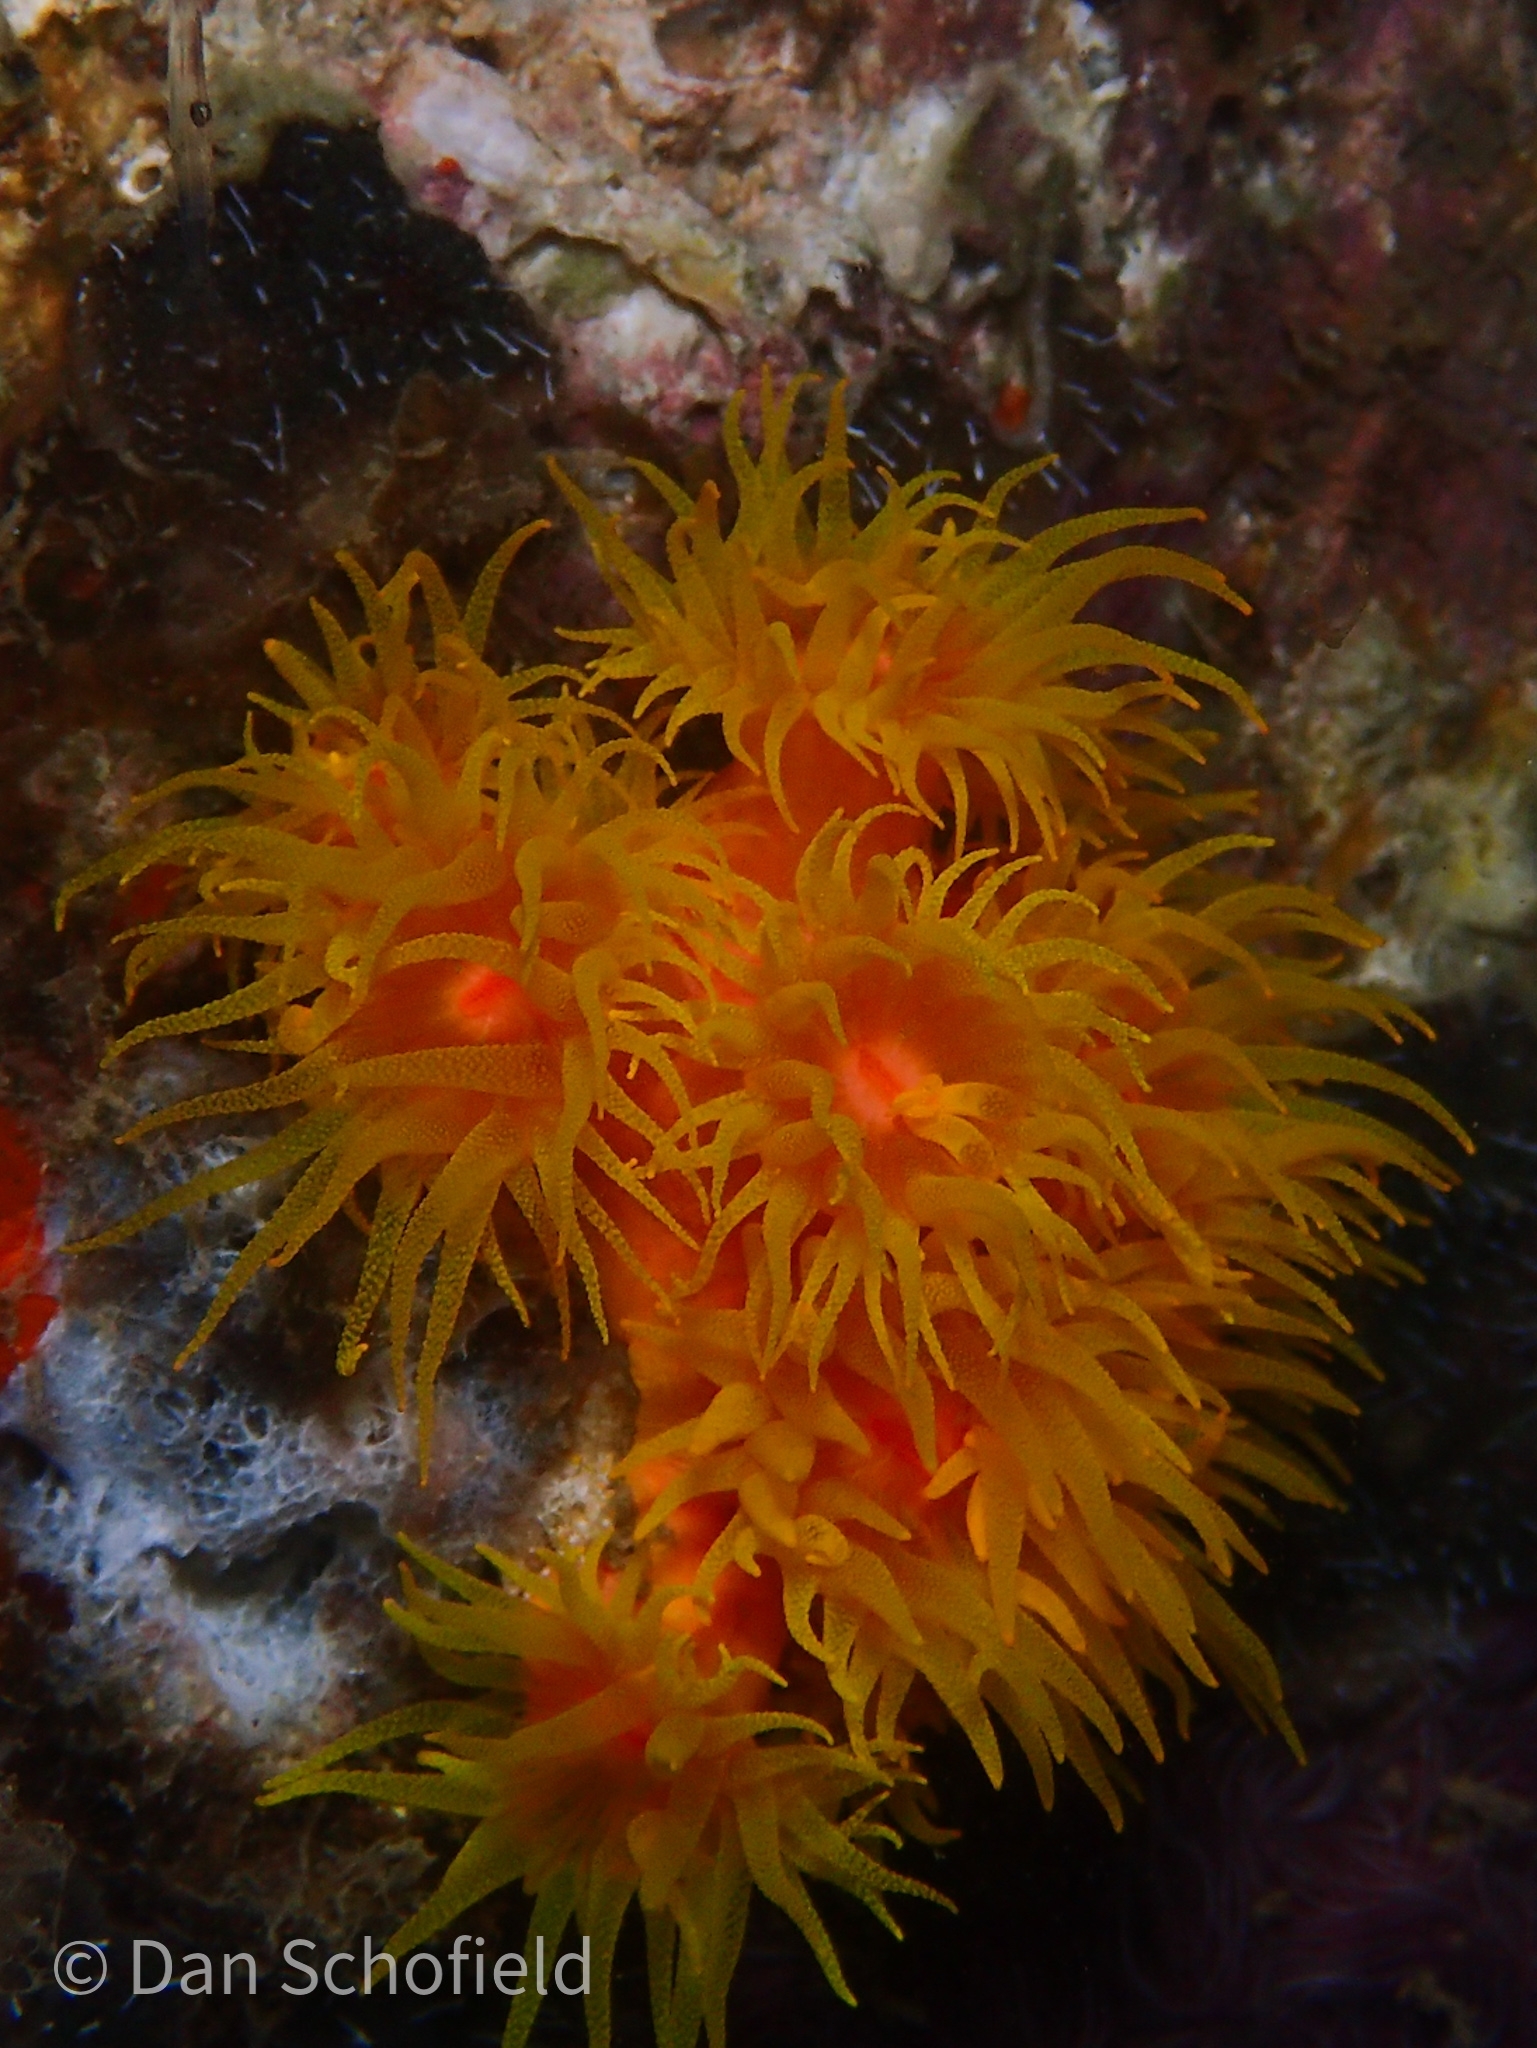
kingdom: Animalia
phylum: Cnidaria
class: Anthozoa
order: Scleractinia
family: Dendrophylliidae
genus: Tubastraea
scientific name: Tubastraea coccinea
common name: Orange cup coral
